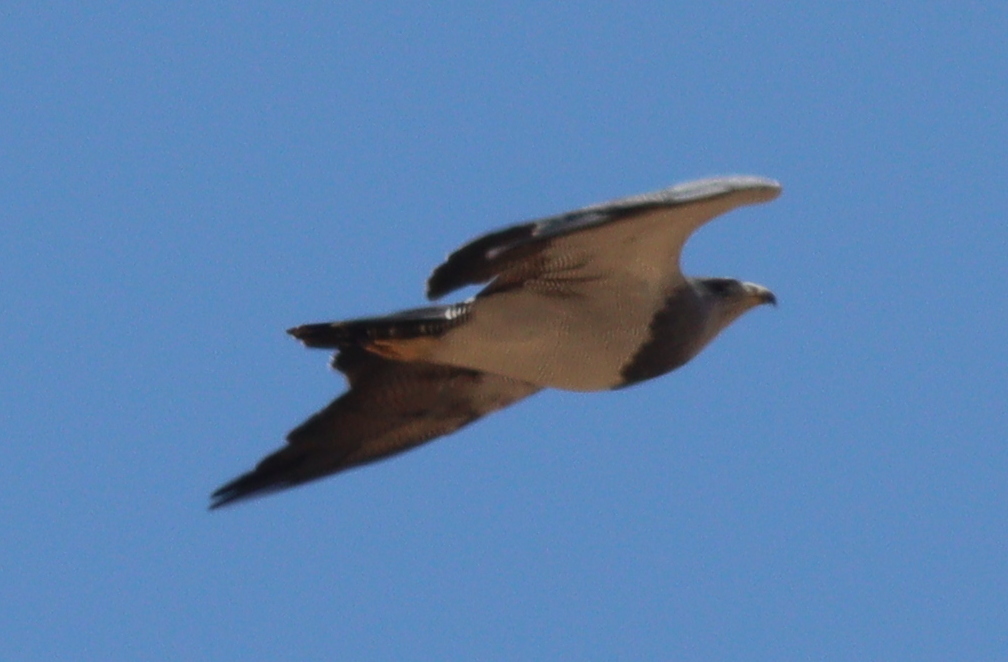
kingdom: Animalia
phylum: Chordata
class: Aves
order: Accipitriformes
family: Accipitridae
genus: Geranoaetus
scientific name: Geranoaetus melanoleucus
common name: Black-chested buzzard-eagle
